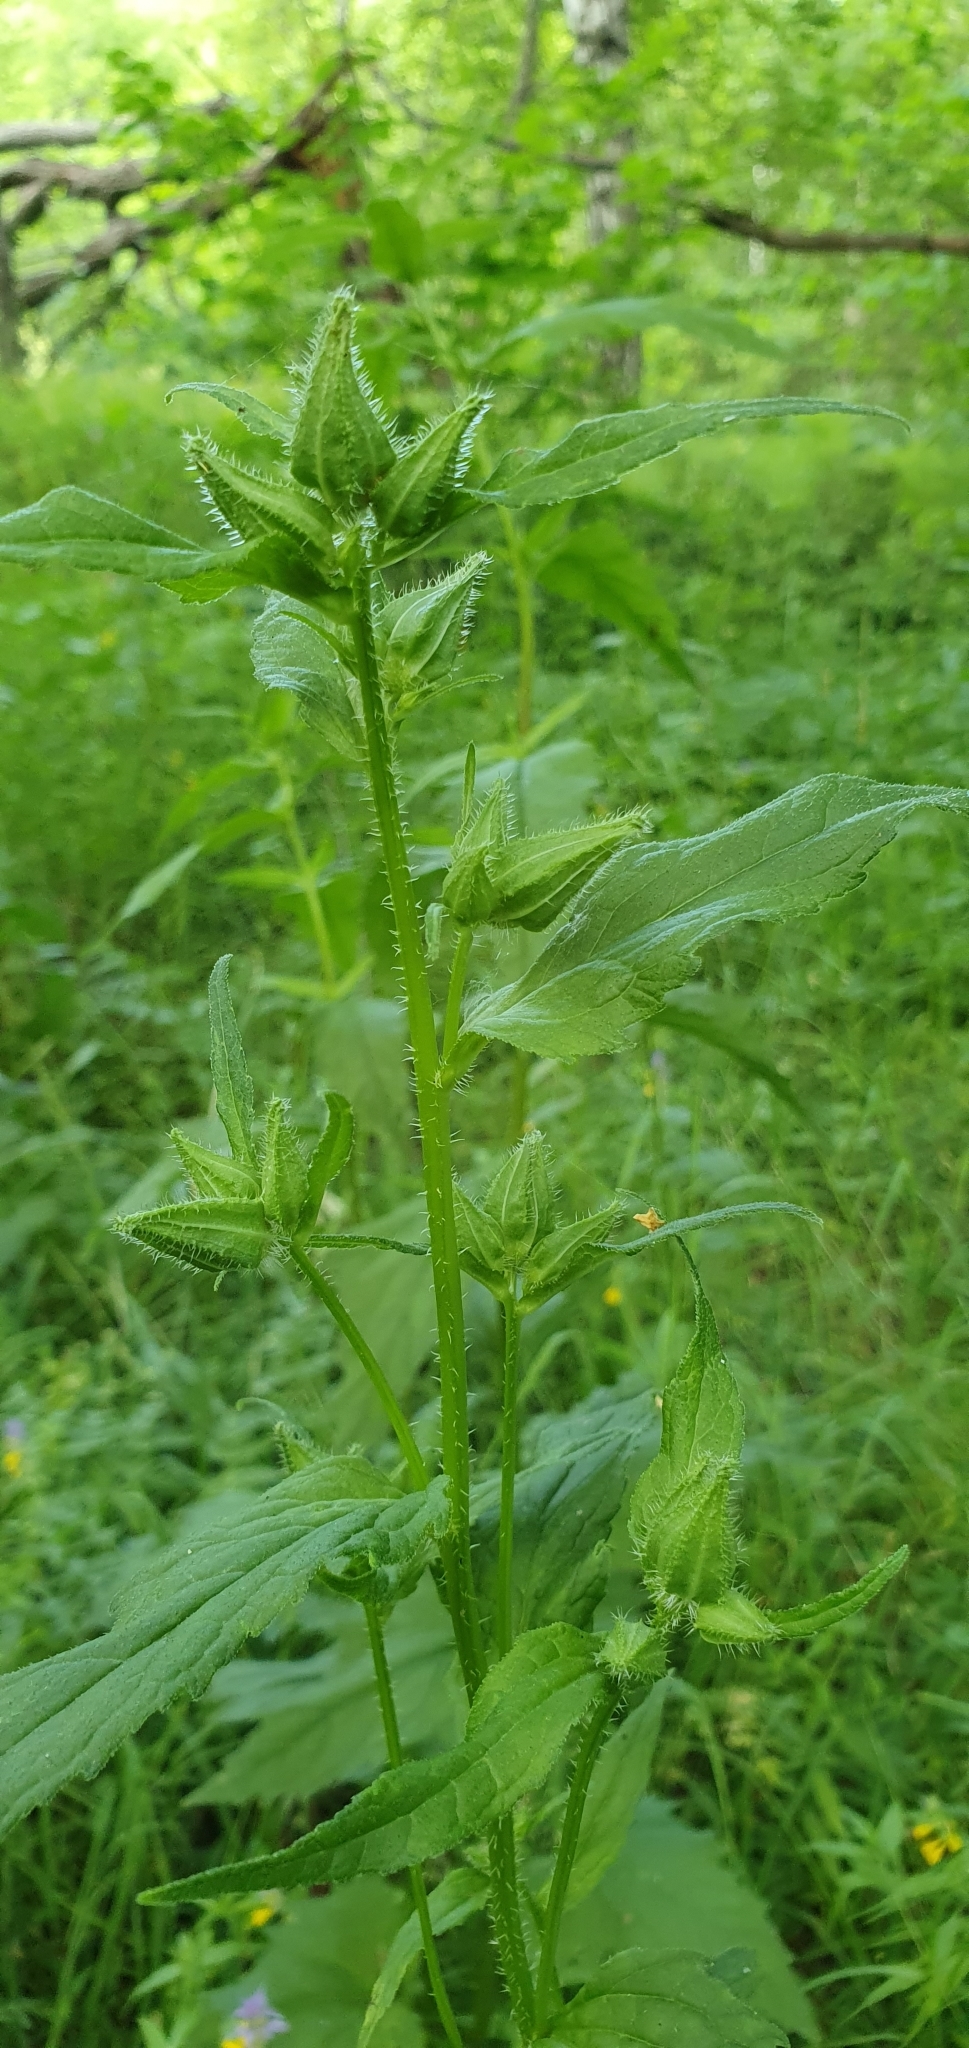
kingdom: Plantae
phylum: Tracheophyta
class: Magnoliopsida
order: Asterales
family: Campanulaceae
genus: Campanula
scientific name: Campanula trachelium
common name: Nettle-leaved bellflower
